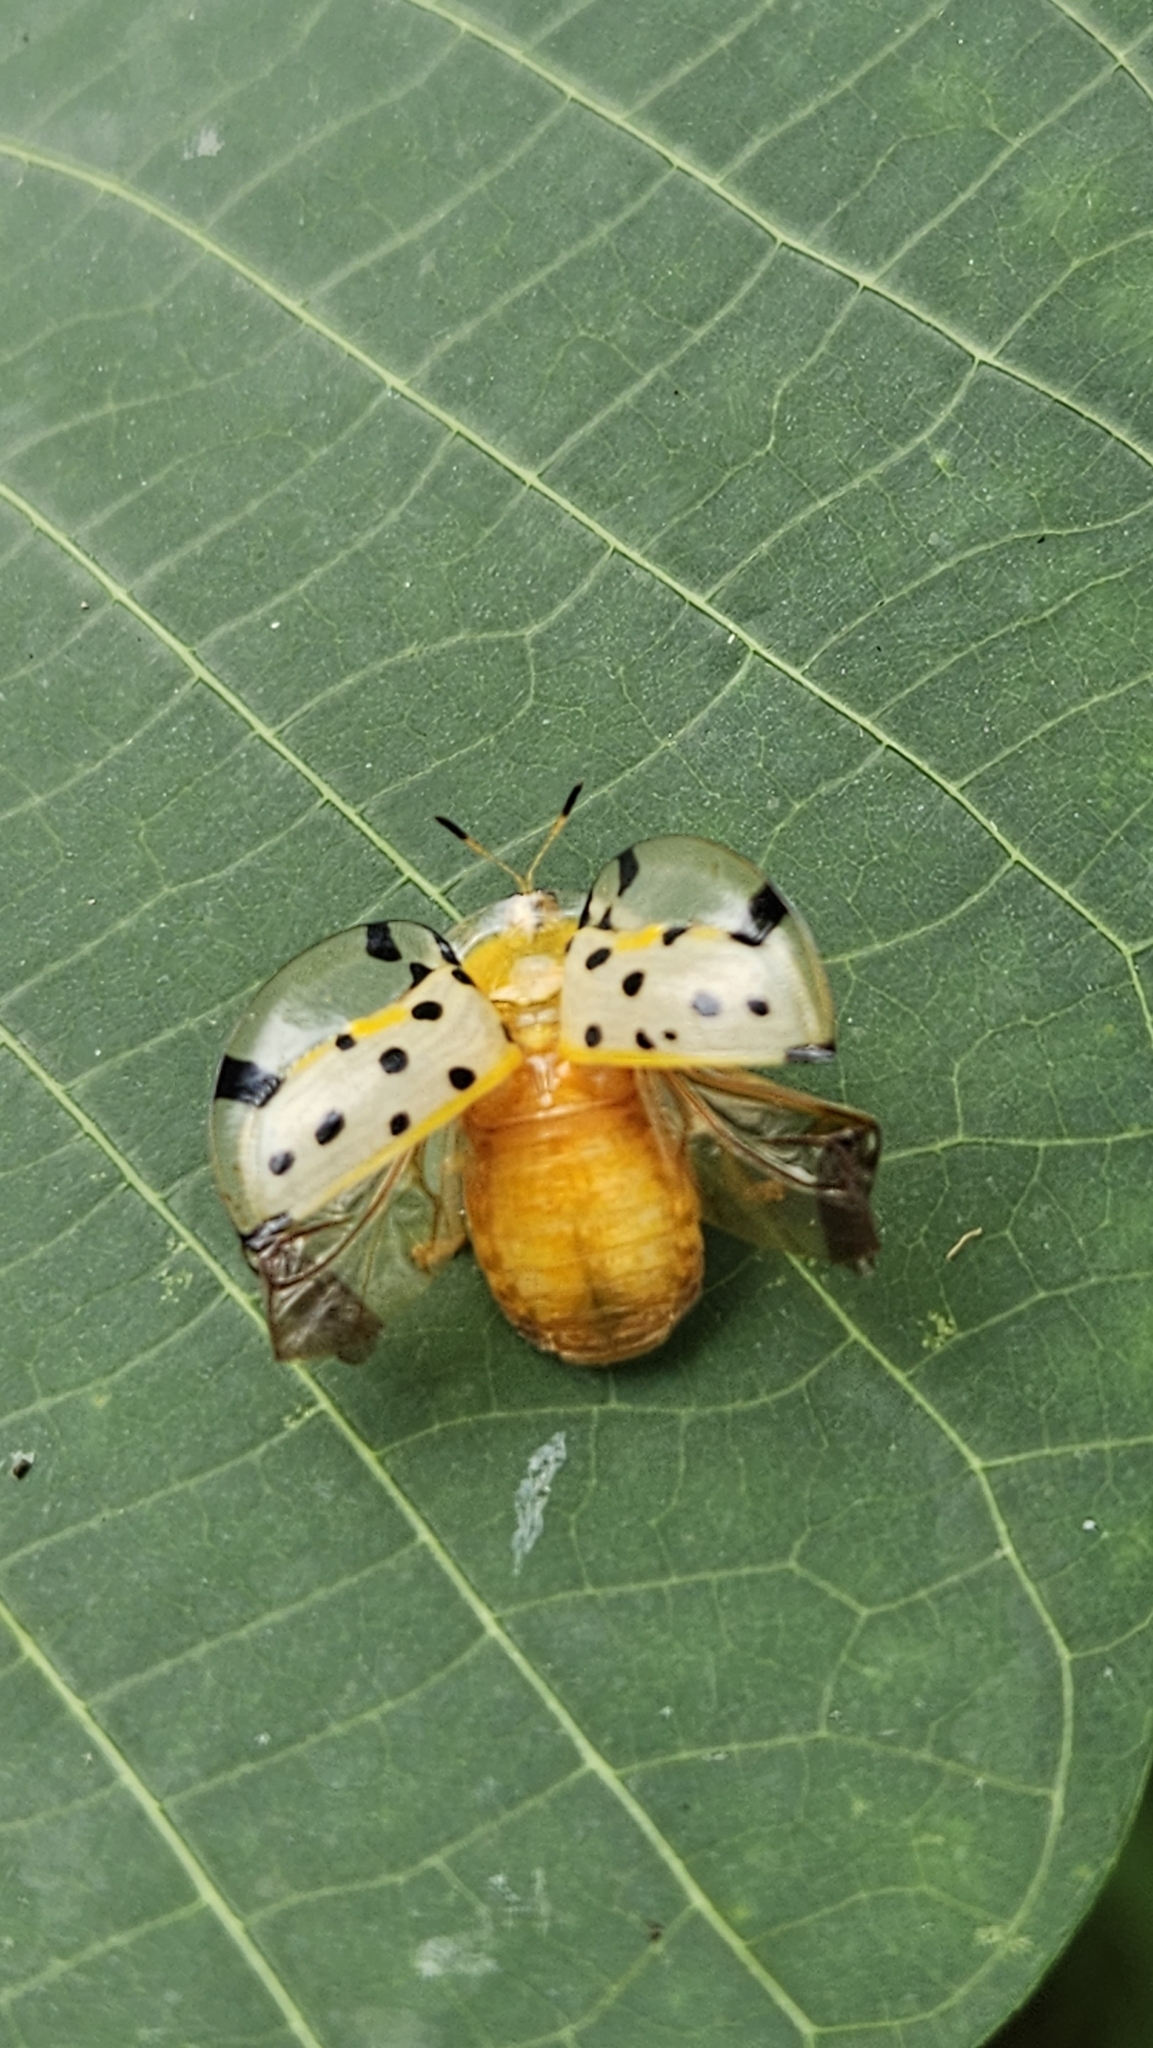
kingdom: Animalia
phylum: Arthropoda
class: Insecta
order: Coleoptera
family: Chrysomelidae
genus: Aspidimorpha
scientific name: Aspidimorpha miliaris
